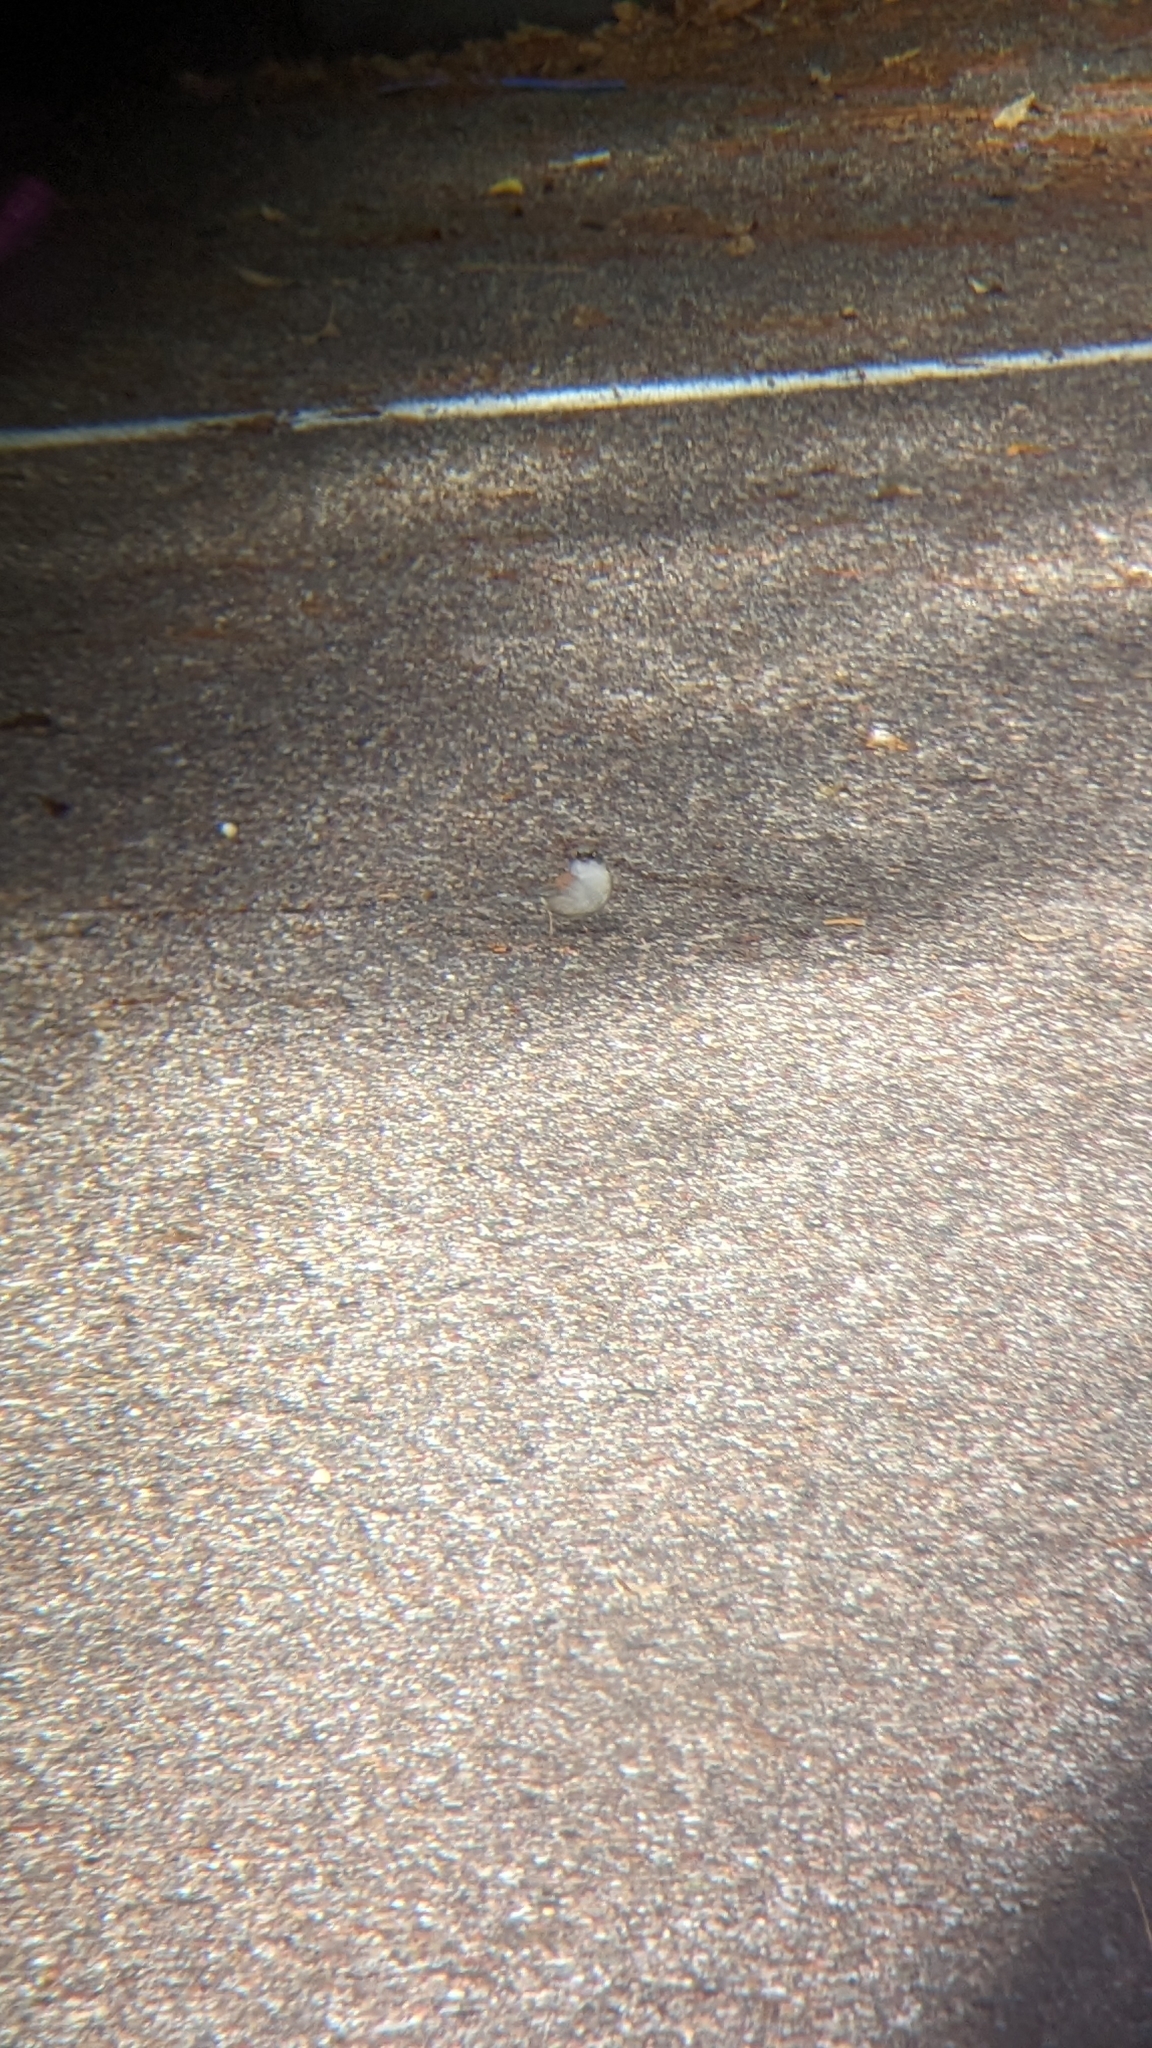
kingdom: Animalia
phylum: Chordata
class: Aves
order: Passeriformes
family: Passerellidae
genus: Junco
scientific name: Junco phaeonotus
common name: Yellow-eyed junco
